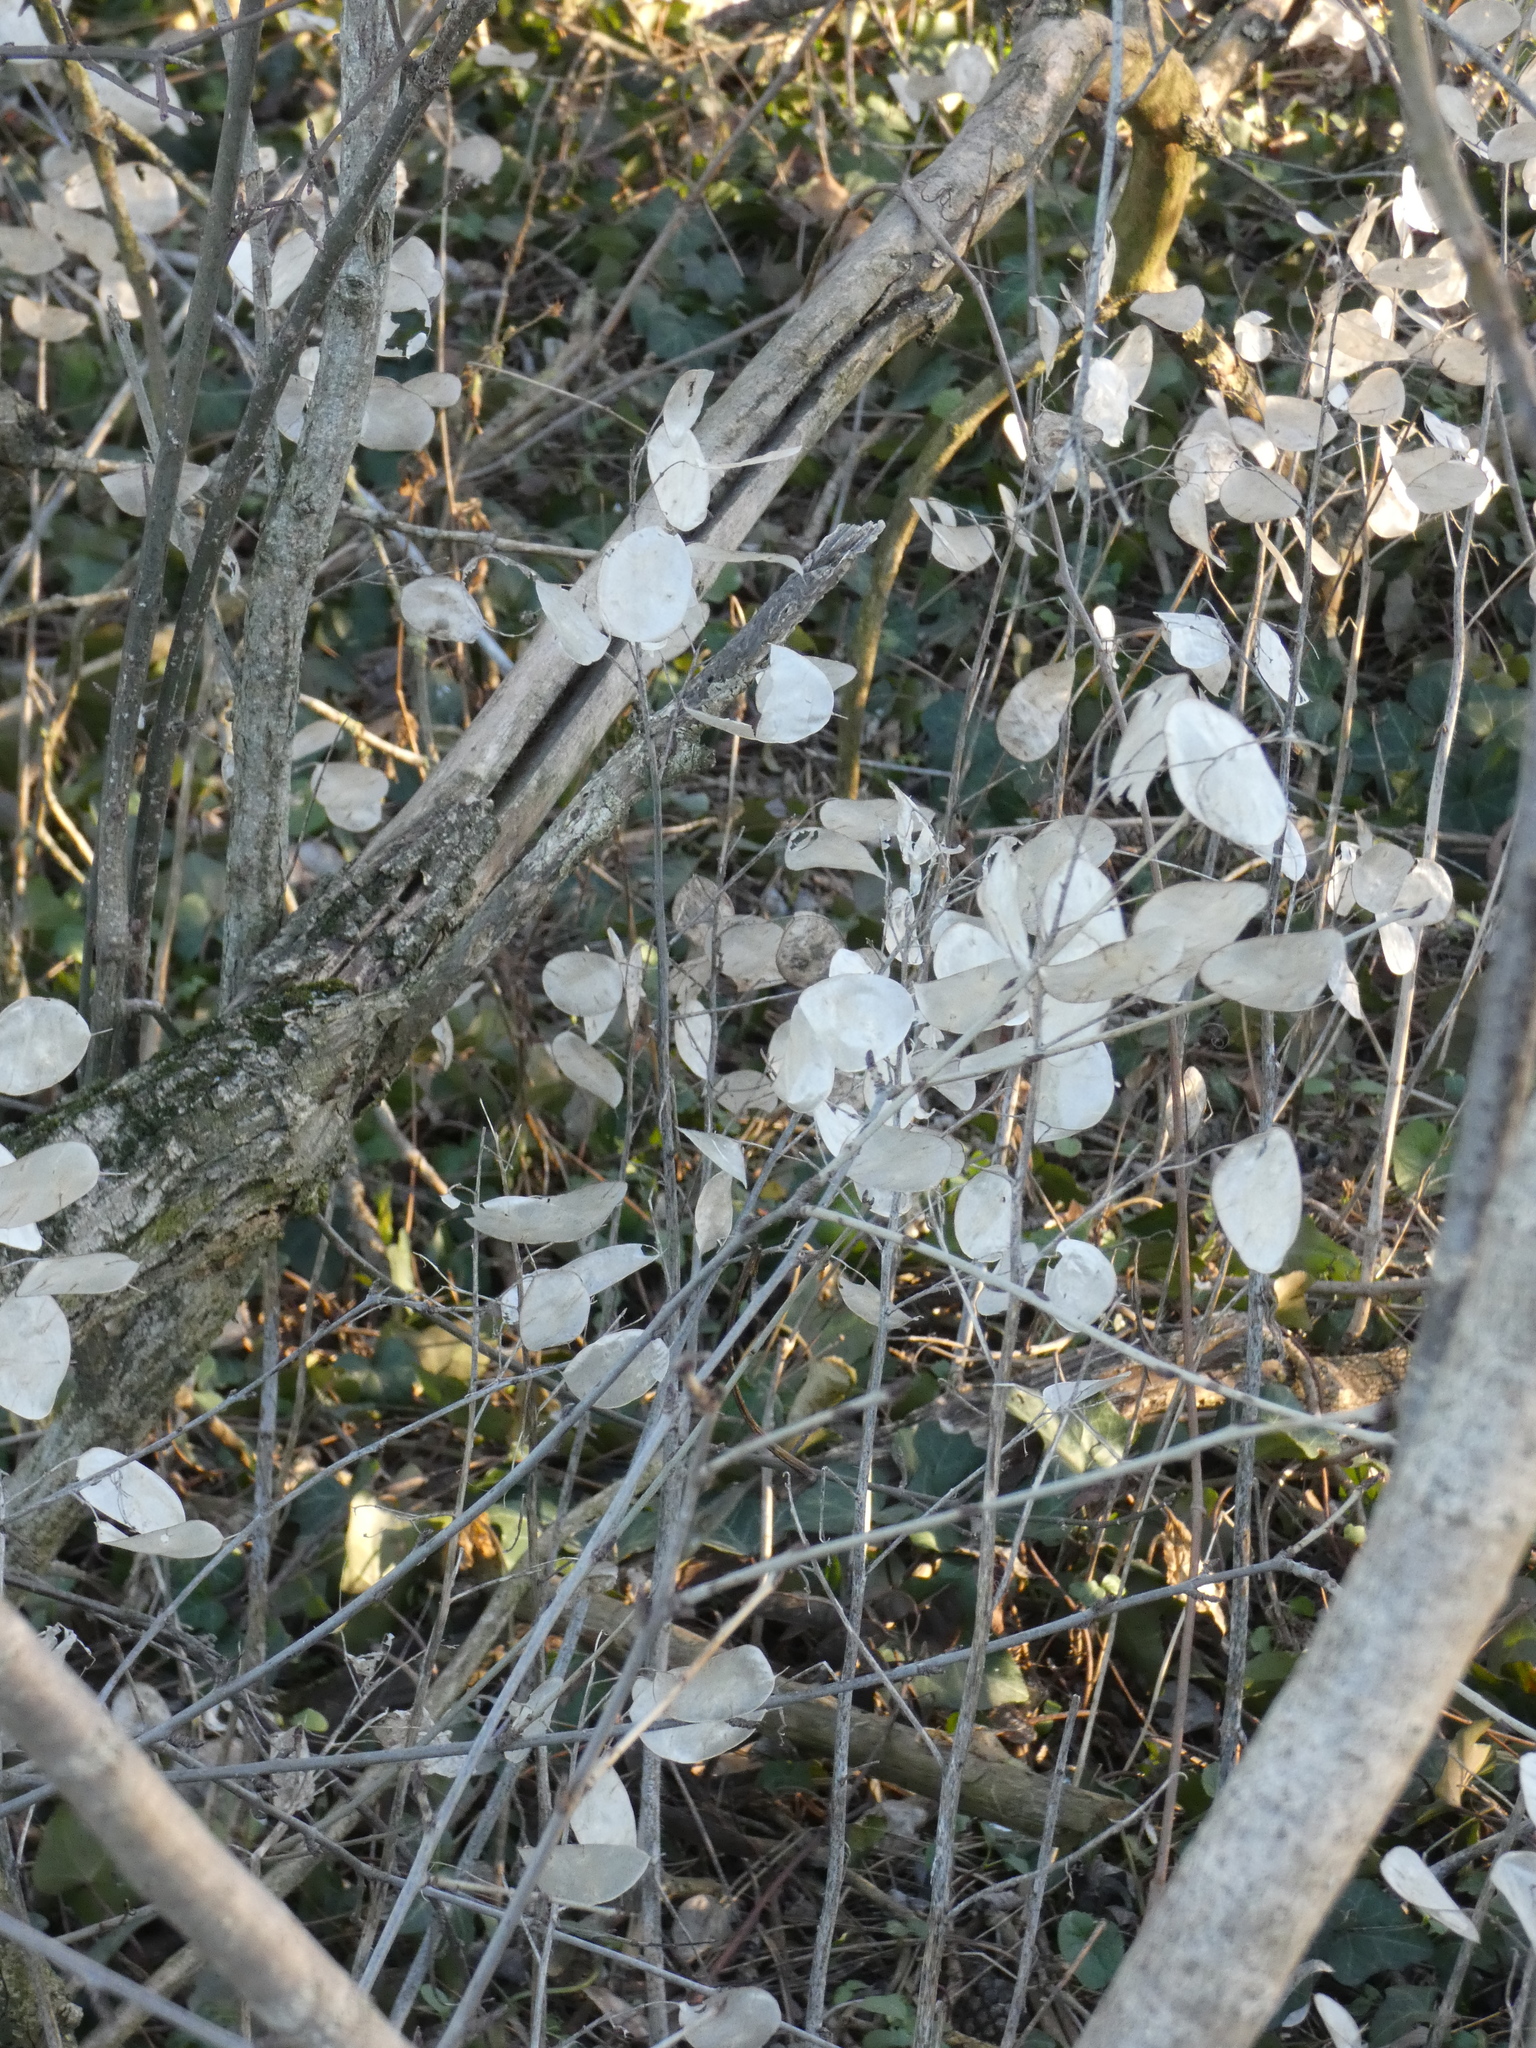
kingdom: Plantae
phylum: Tracheophyta
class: Magnoliopsida
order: Brassicales
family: Brassicaceae
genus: Lunaria
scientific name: Lunaria annua
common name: Honesty
